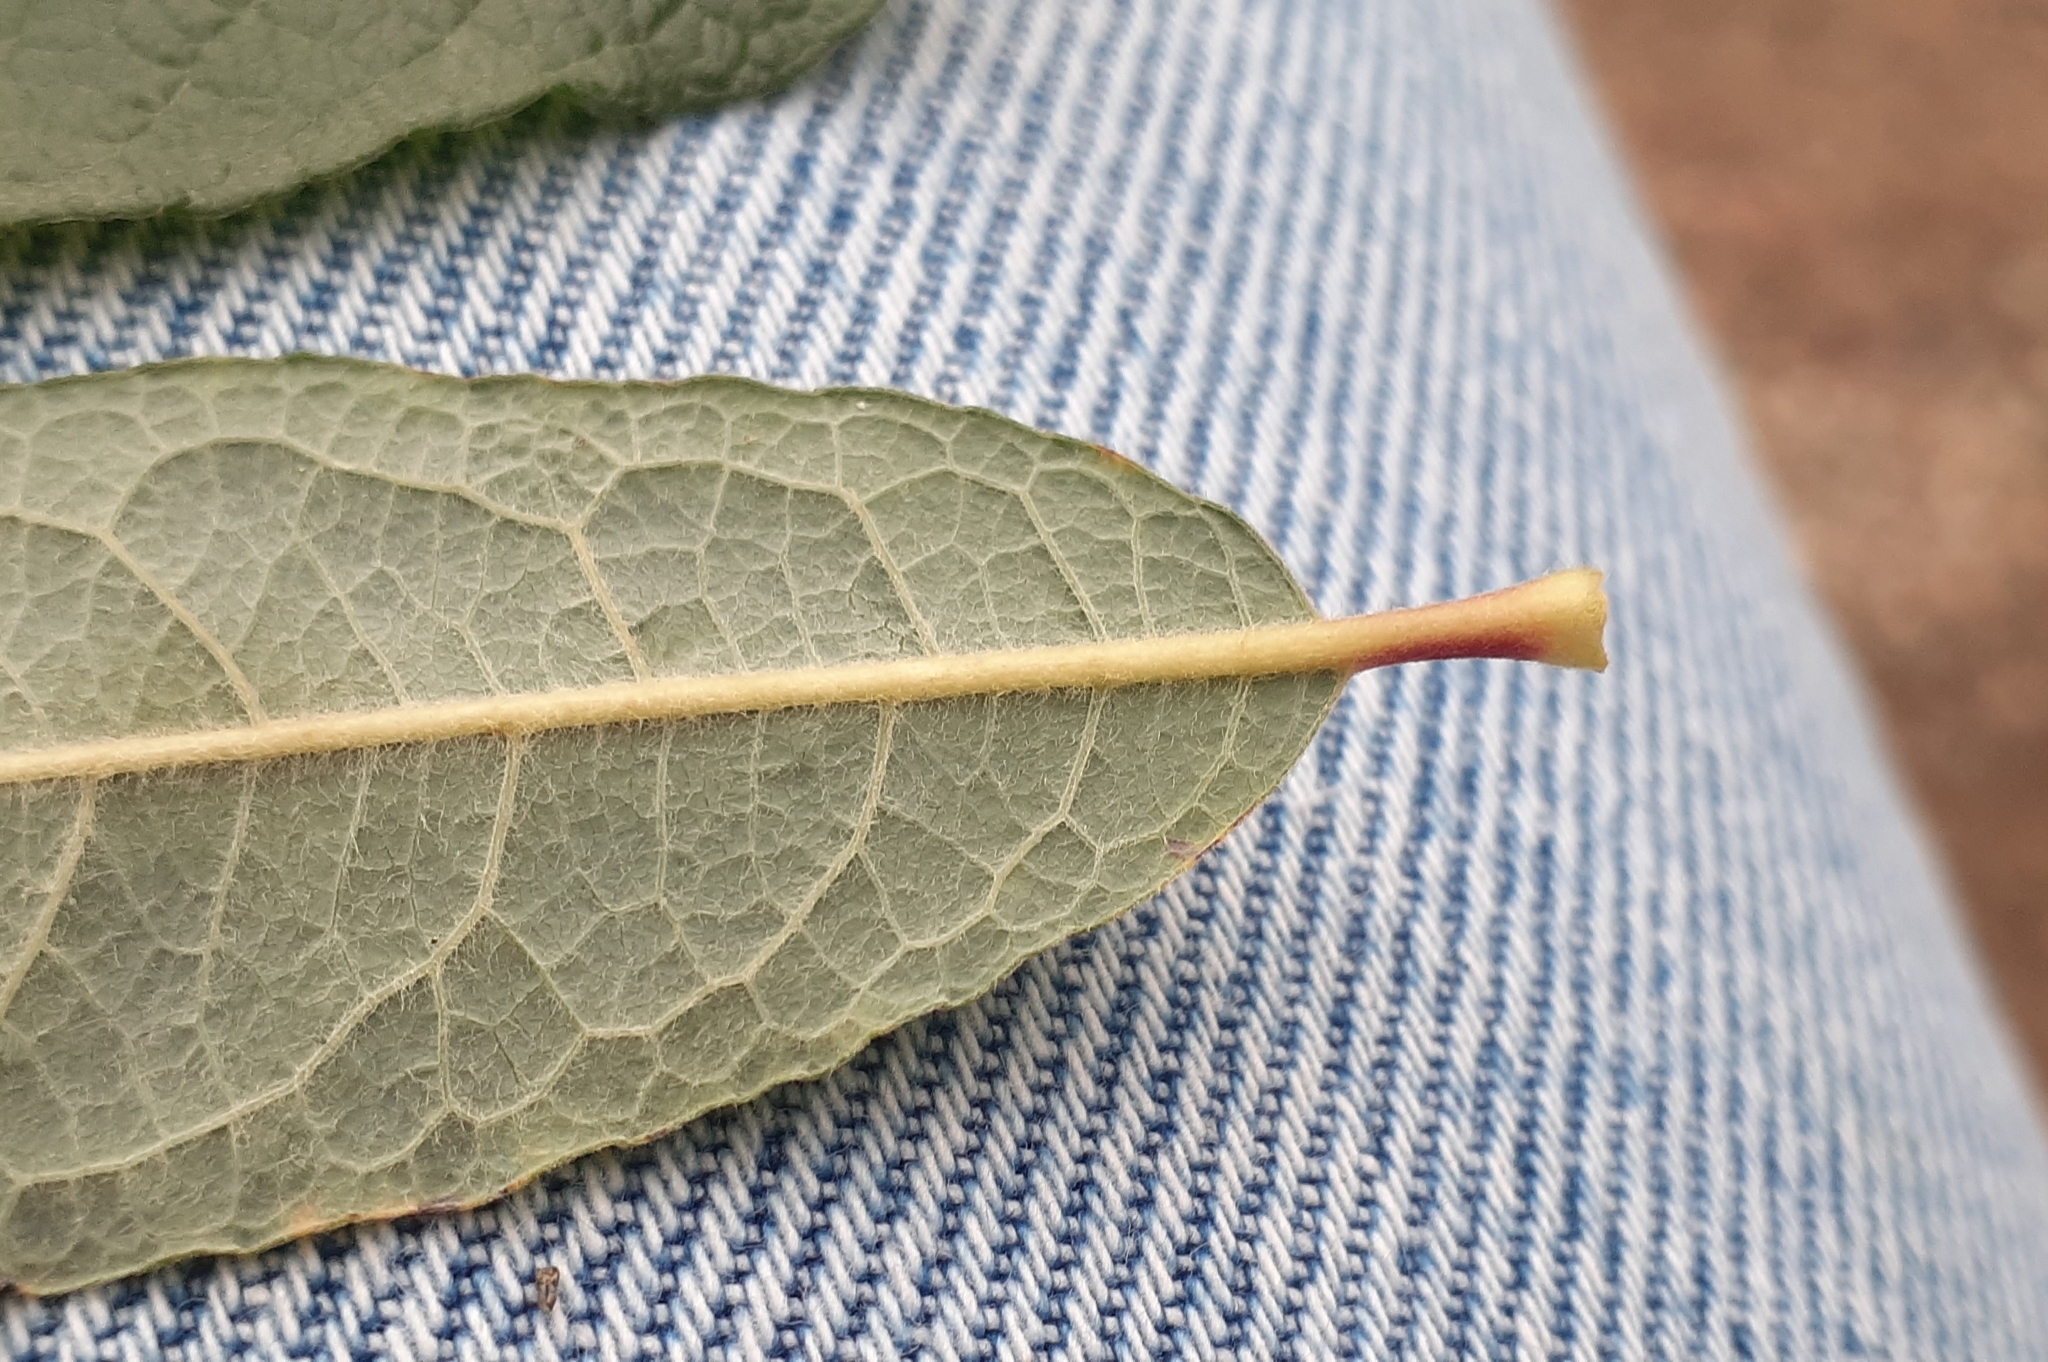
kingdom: Plantae
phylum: Tracheophyta
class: Magnoliopsida
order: Malpighiales
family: Salicaceae
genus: Salix
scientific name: Salix bebbiana
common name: Bebb's willow
